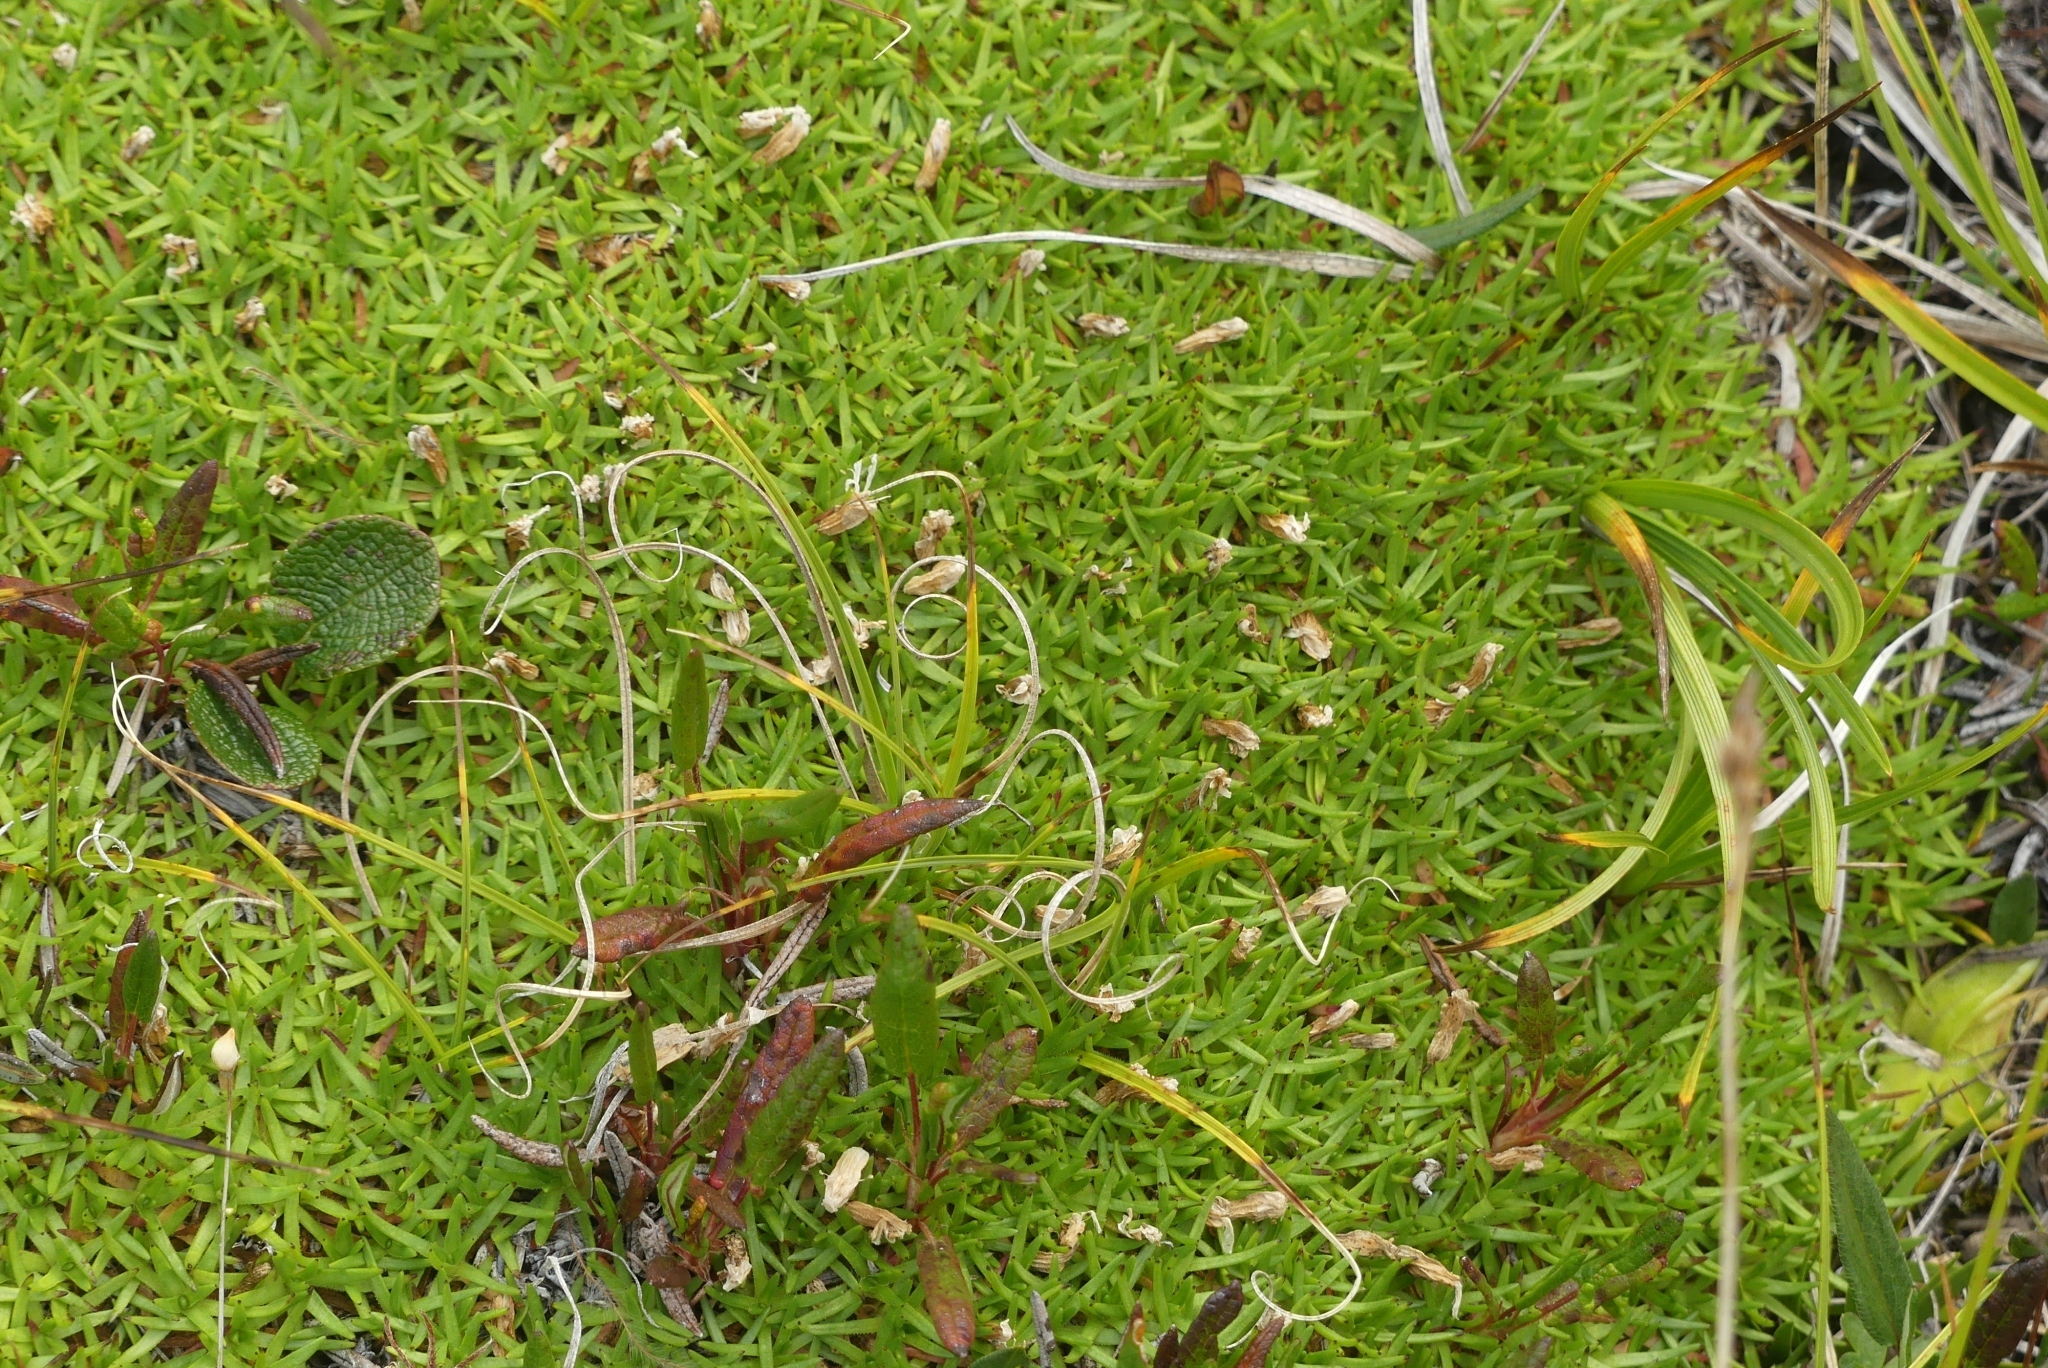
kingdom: Plantae
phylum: Tracheophyta
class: Magnoliopsida
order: Caryophyllales
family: Caryophyllaceae
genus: Silene
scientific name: Silene acaulis
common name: Moss campion
